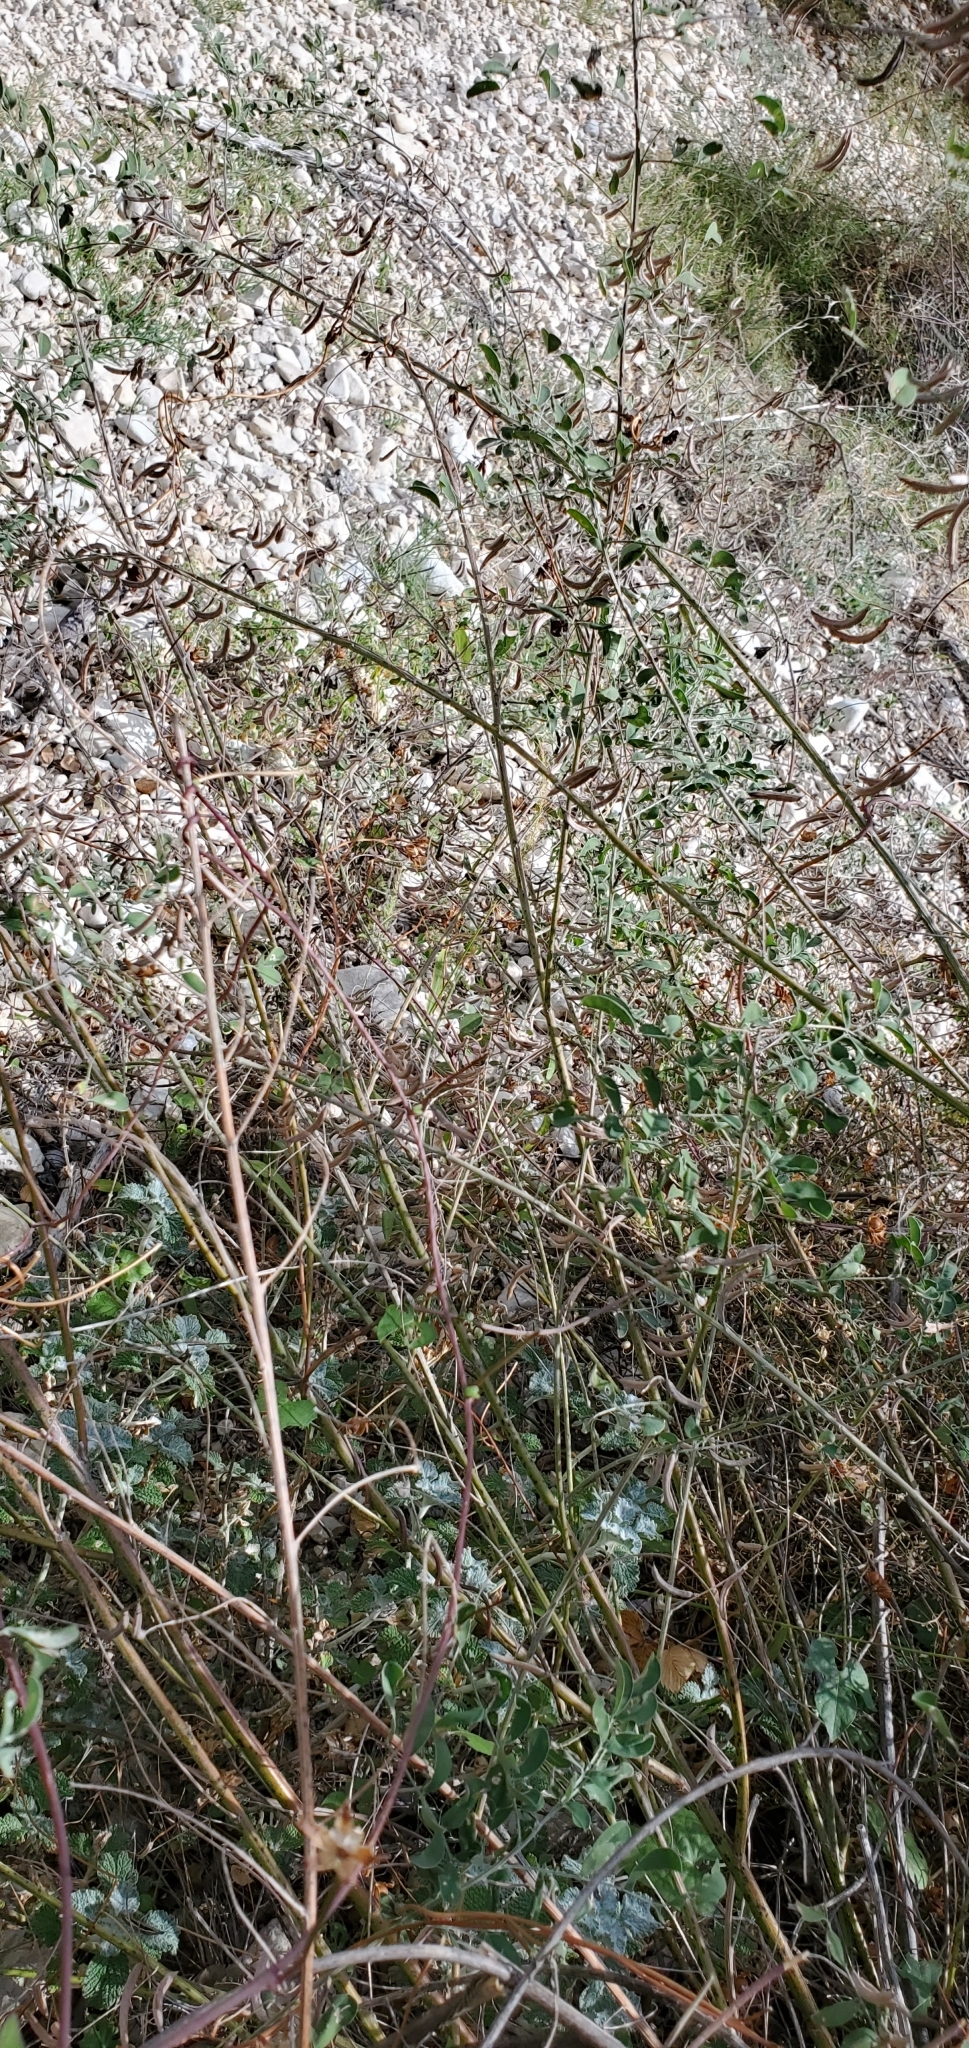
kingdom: Plantae
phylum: Tracheophyta
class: Magnoliopsida
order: Fabales
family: Fabaceae
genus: Indigofera
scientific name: Indigofera lindheimeriana
